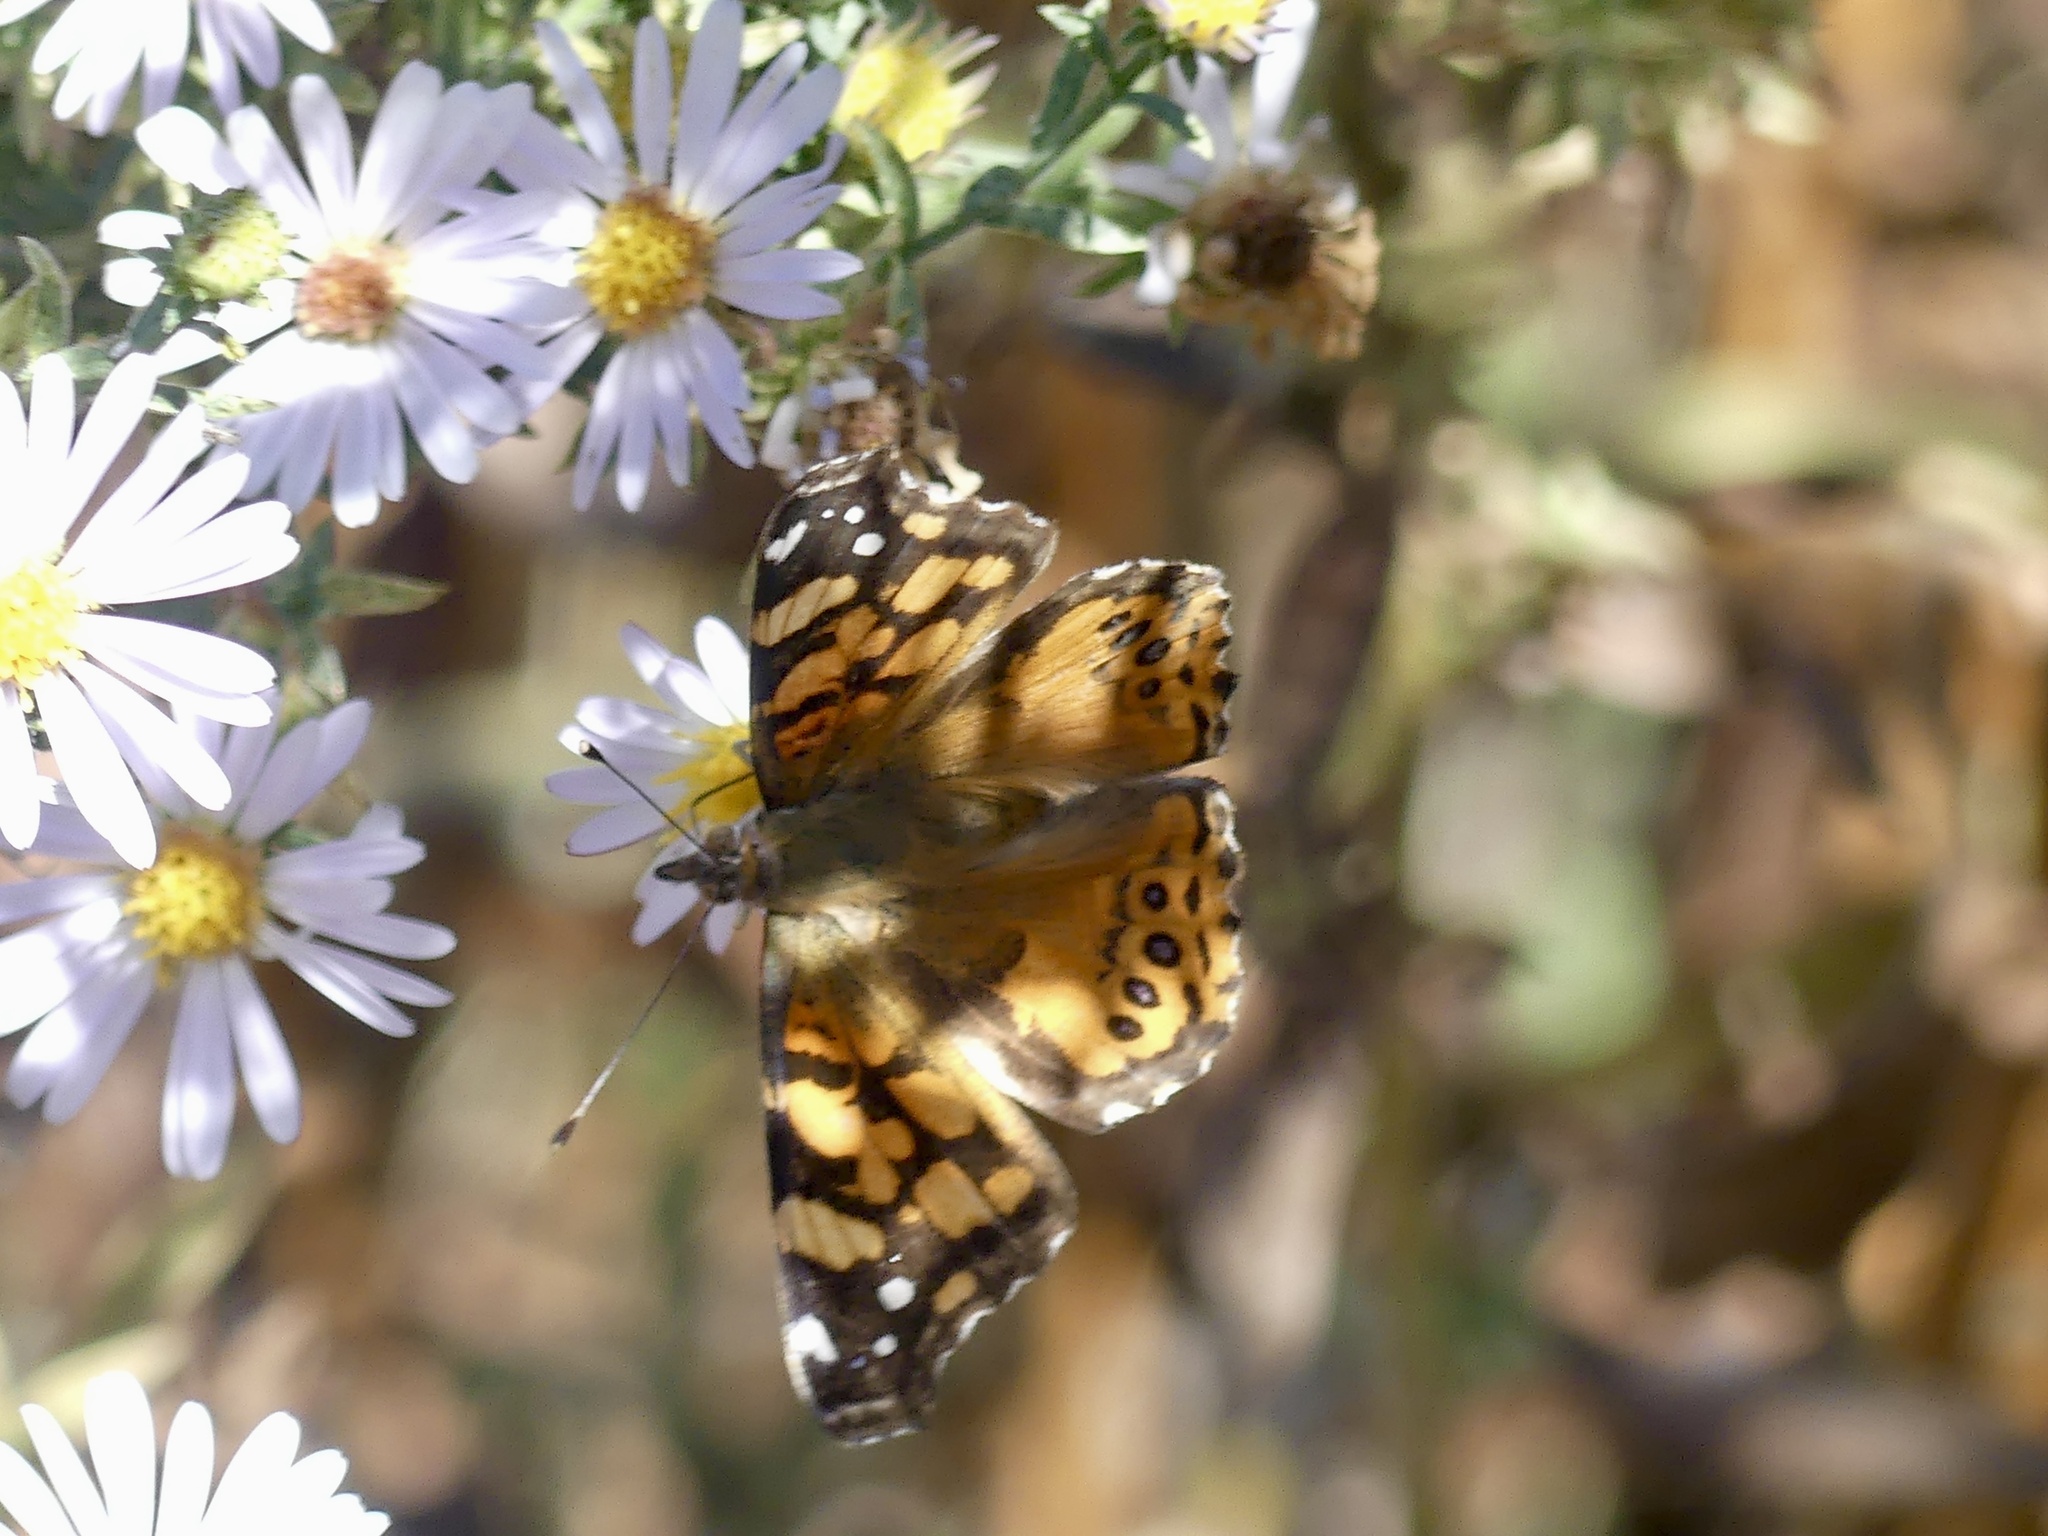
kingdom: Animalia
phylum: Arthropoda
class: Insecta
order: Lepidoptera
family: Nymphalidae
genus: Vanessa
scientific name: Vanessa annabella
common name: West coast lady
